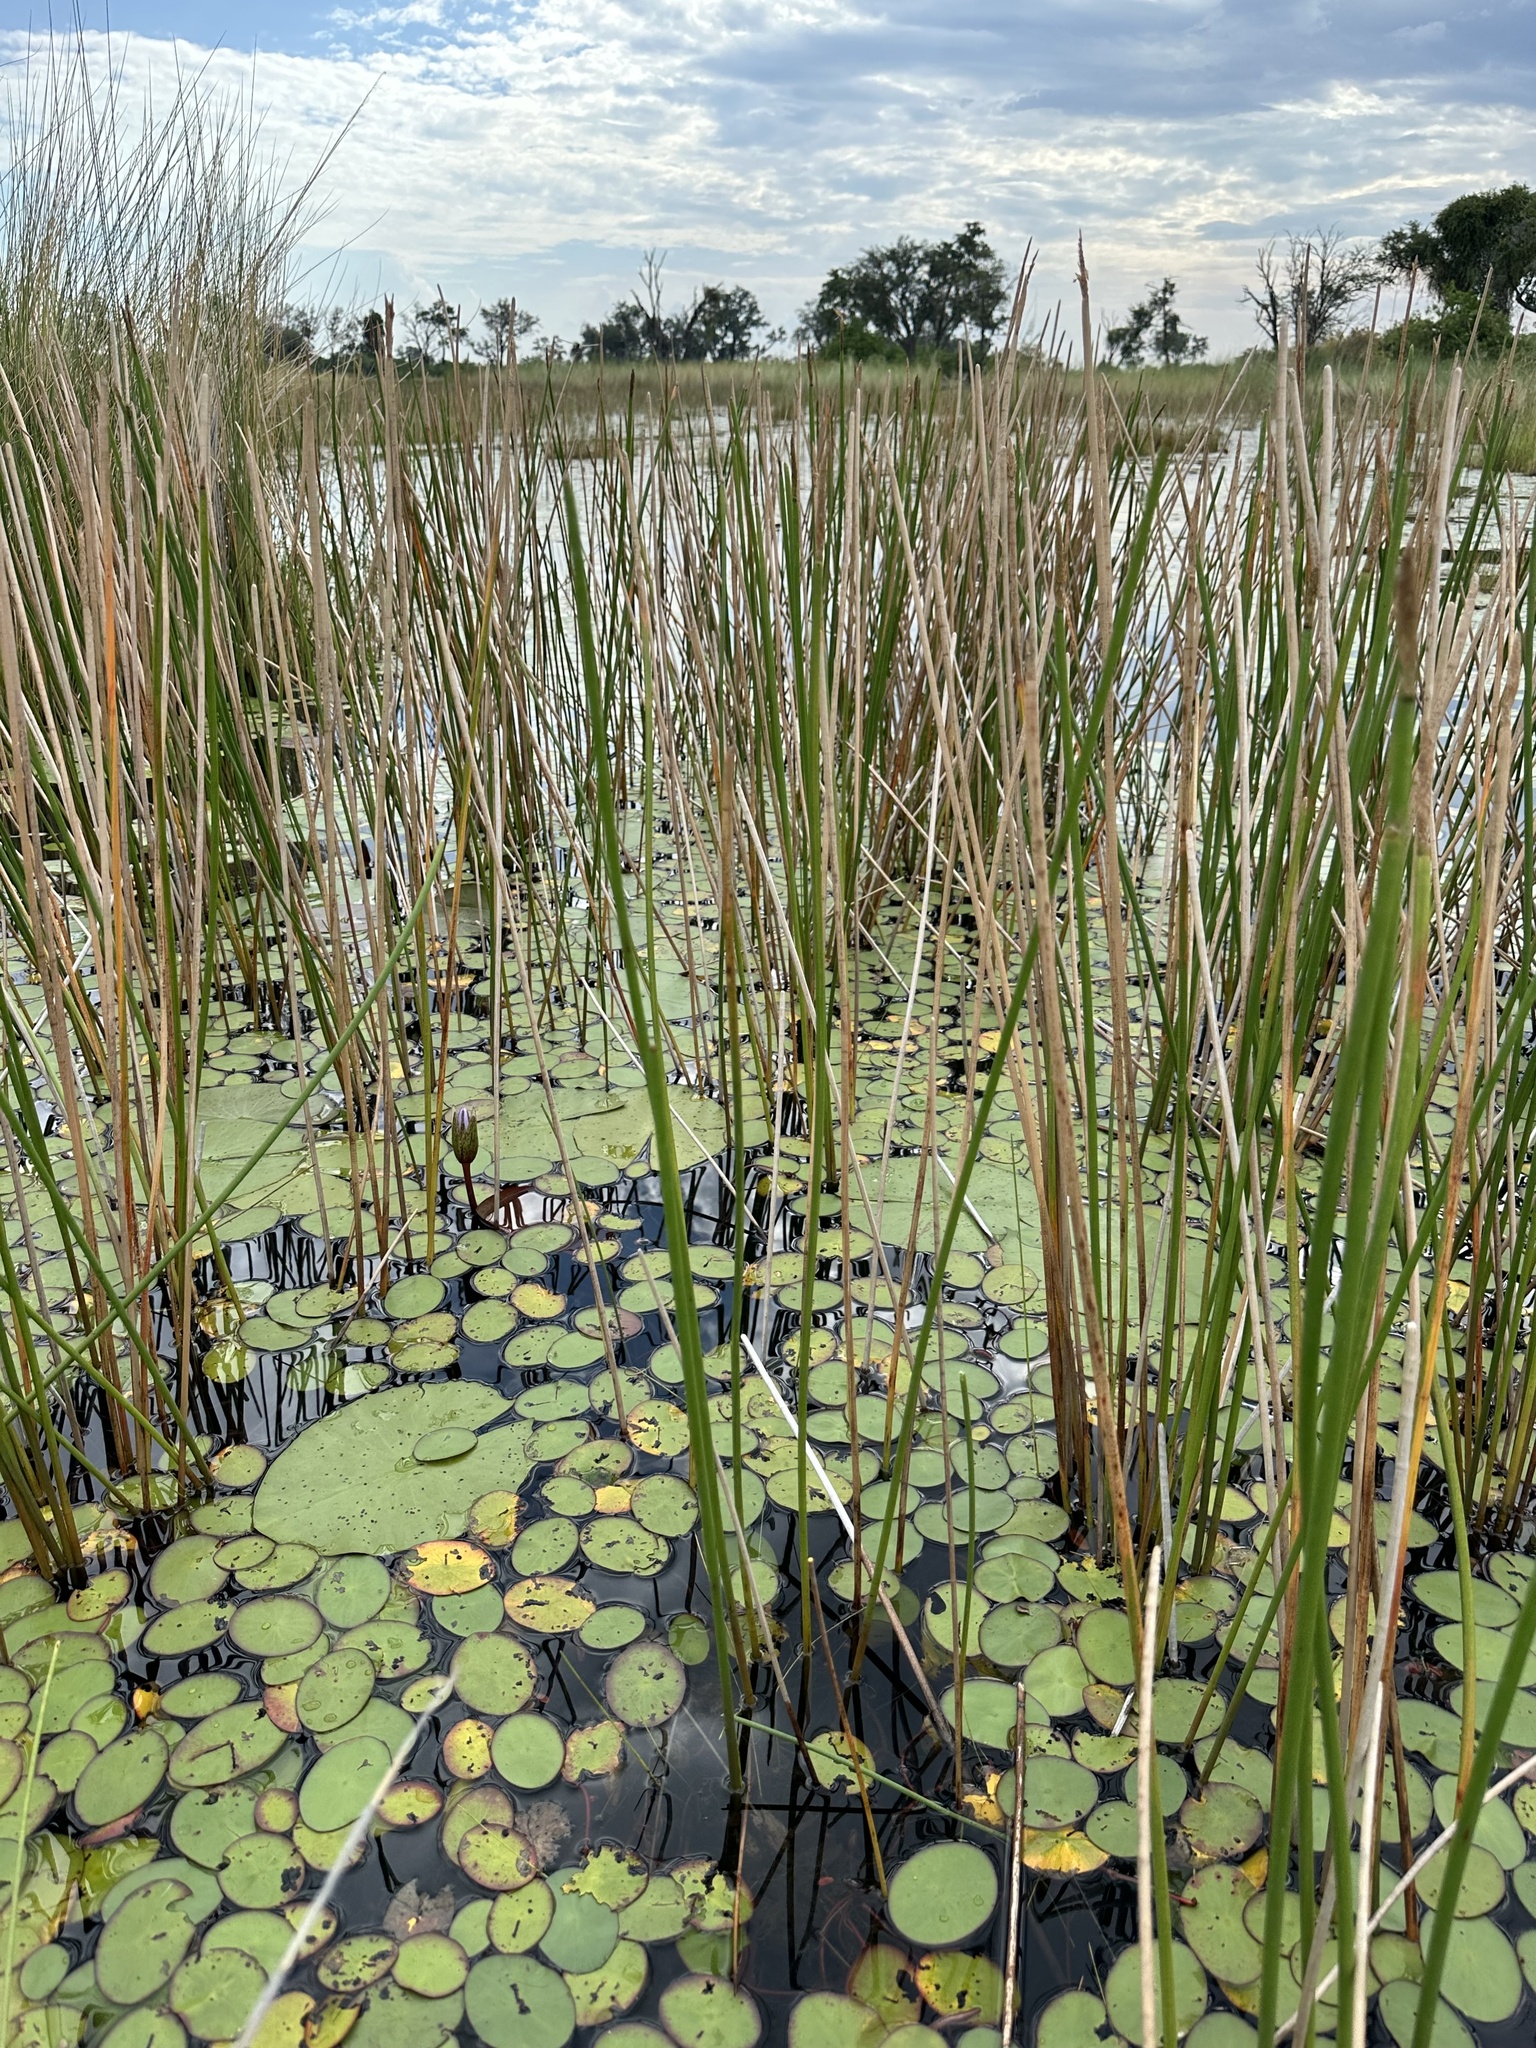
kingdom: Plantae
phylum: Tracheophyta
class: Liliopsida
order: Poales
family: Cyperaceae
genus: Eleocharis
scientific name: Eleocharis dulcis
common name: Chinese water chestnut
